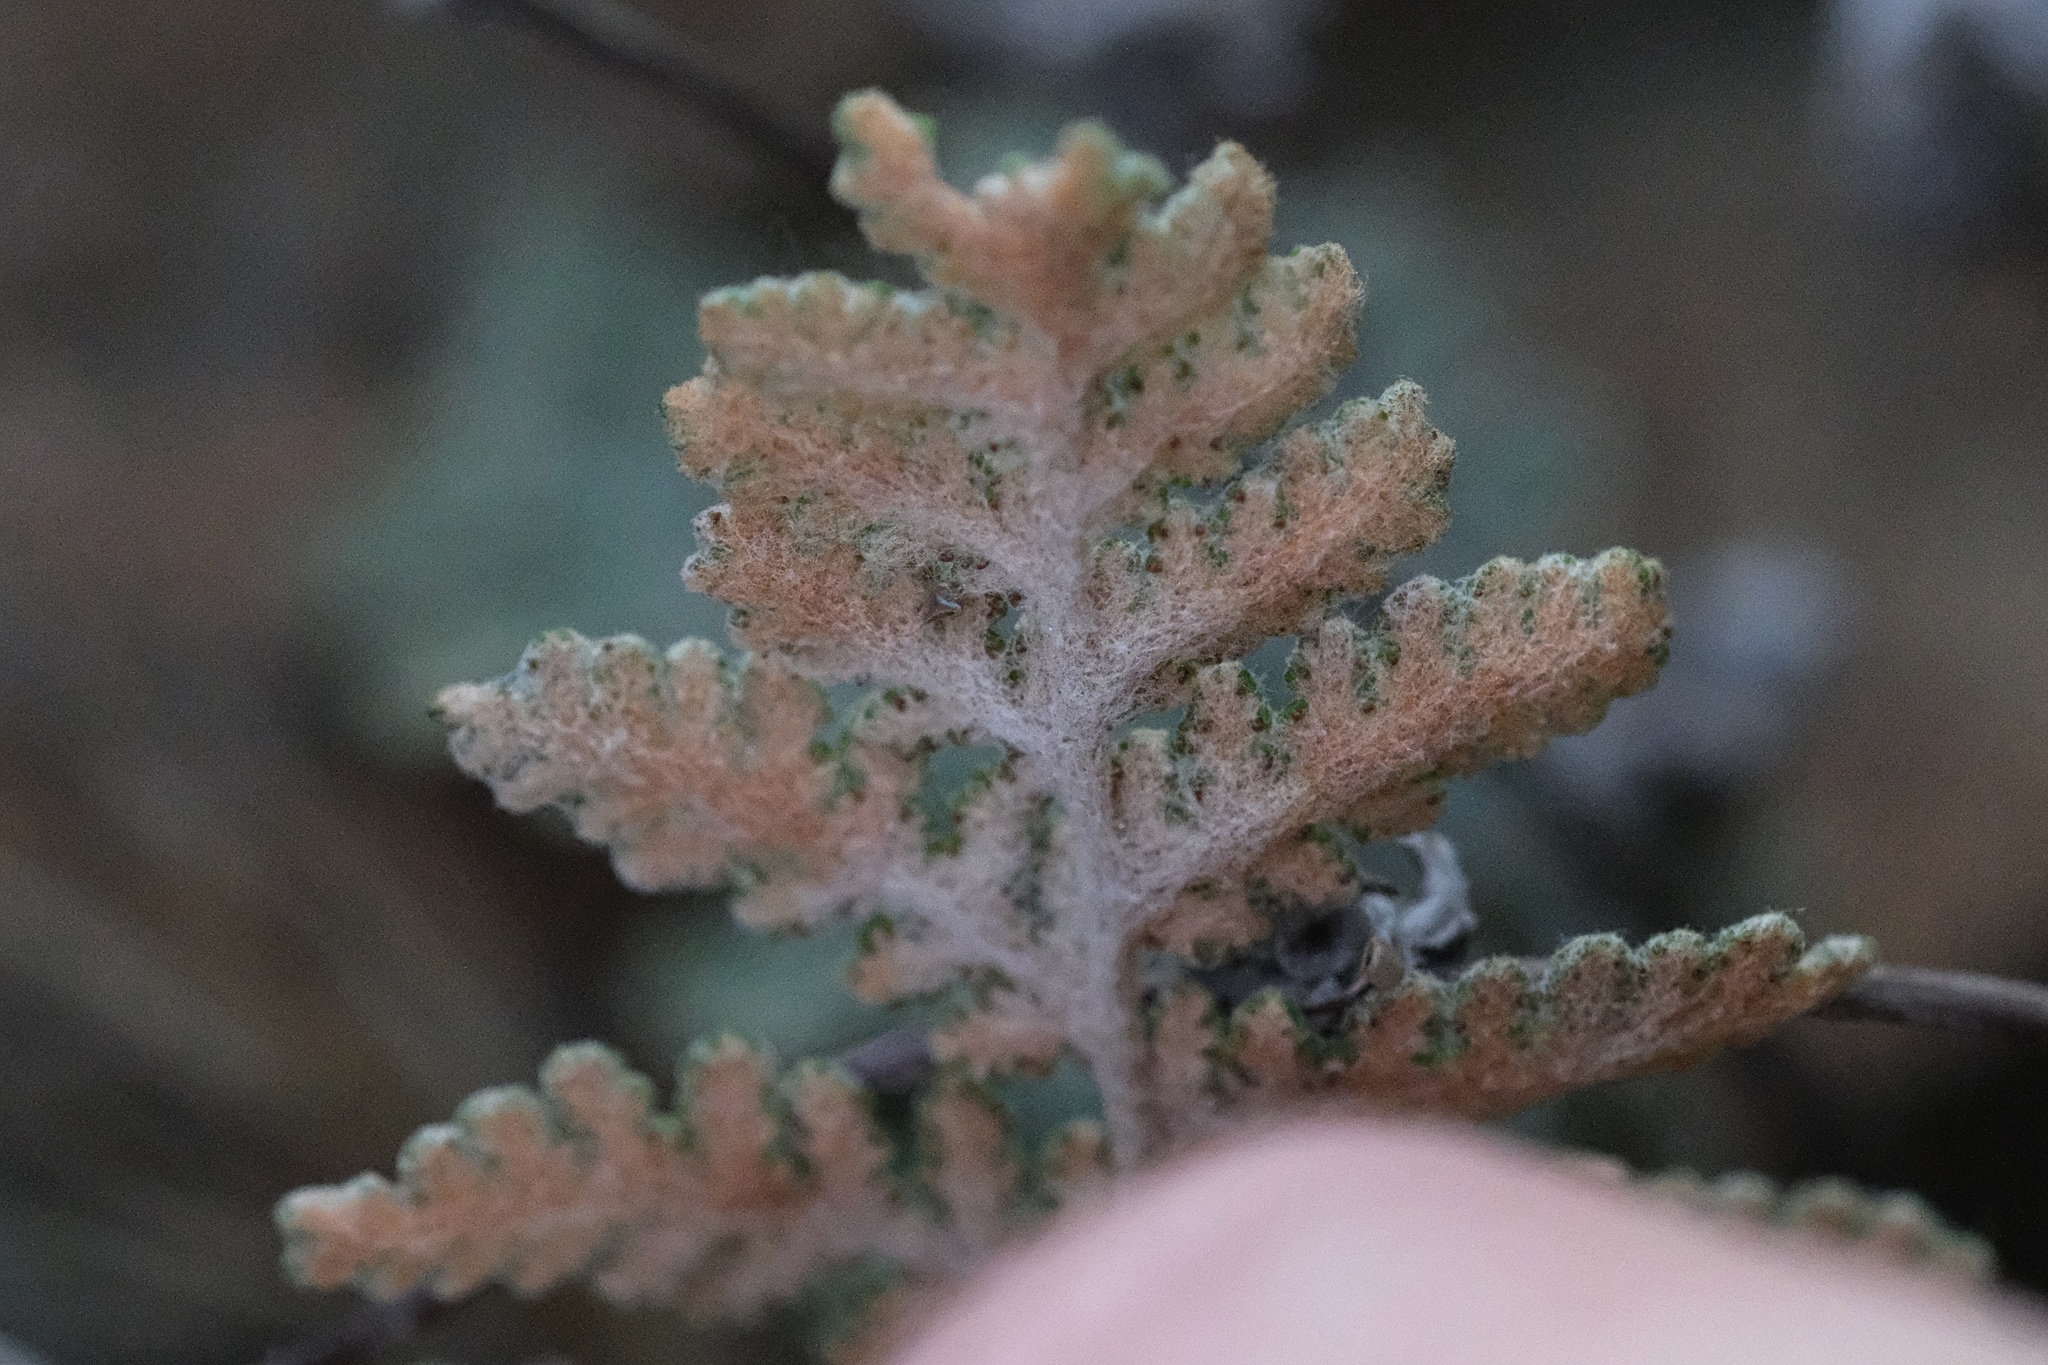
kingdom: Plantae
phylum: Tracheophyta
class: Polypodiopsida
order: Polypodiales
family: Pteridaceae
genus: Myriopteris
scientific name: Myriopteris newberryi
